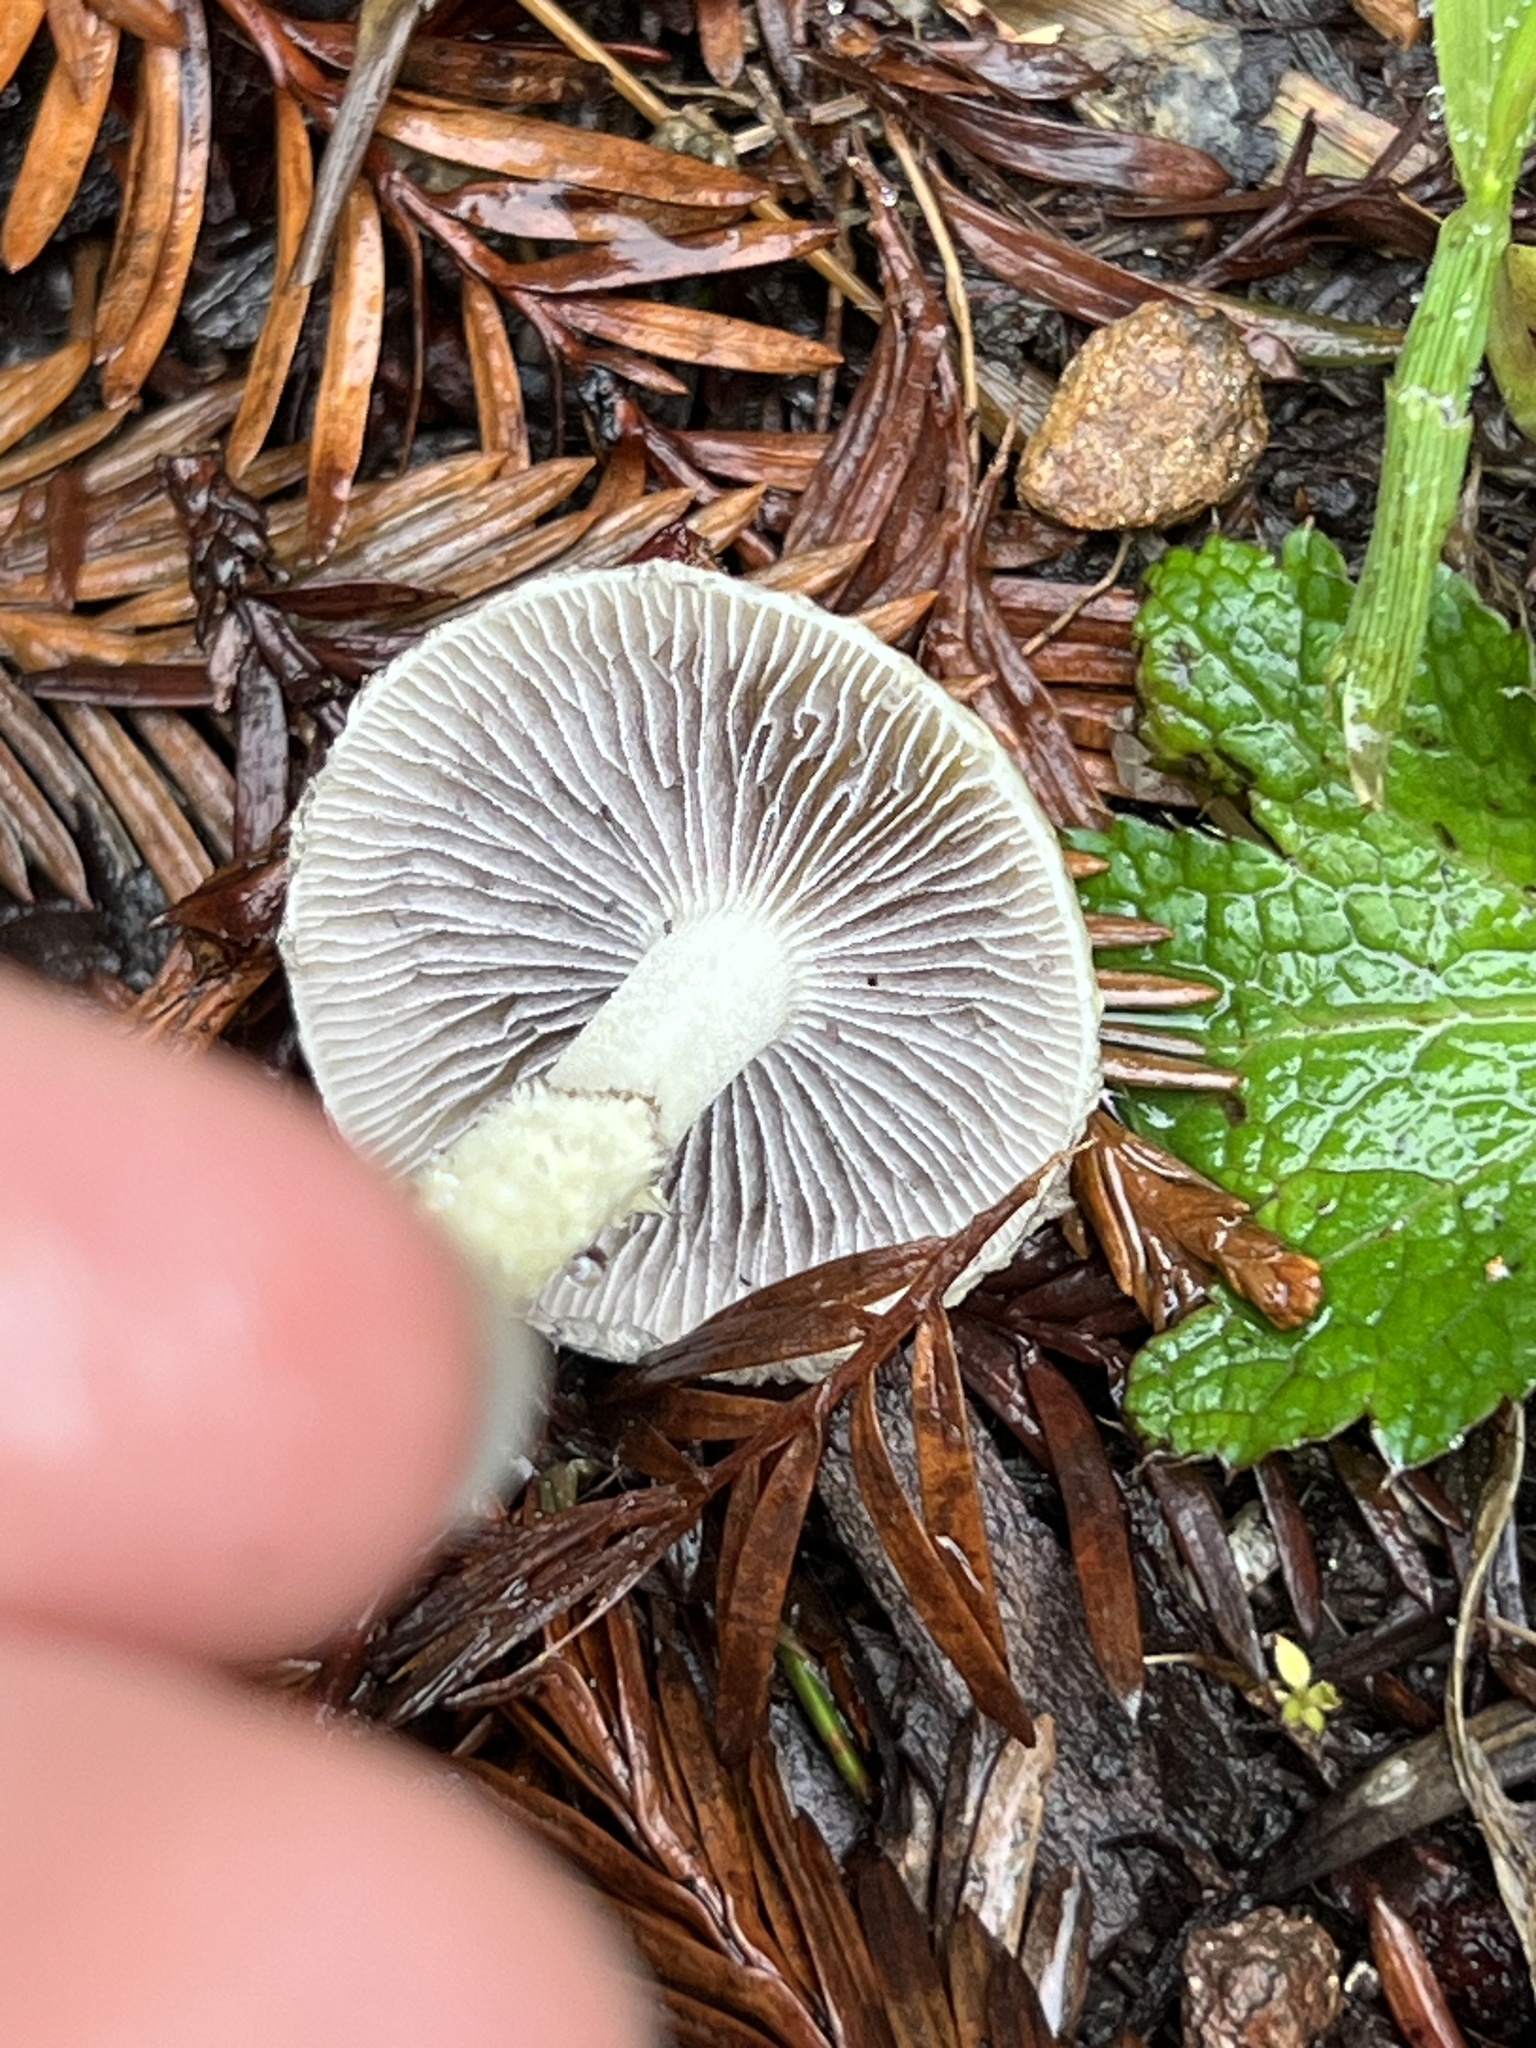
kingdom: Fungi
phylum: Basidiomycota
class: Agaricomycetes
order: Agaricales
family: Strophariaceae
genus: Leratiomyces
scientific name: Leratiomyces percevalii
